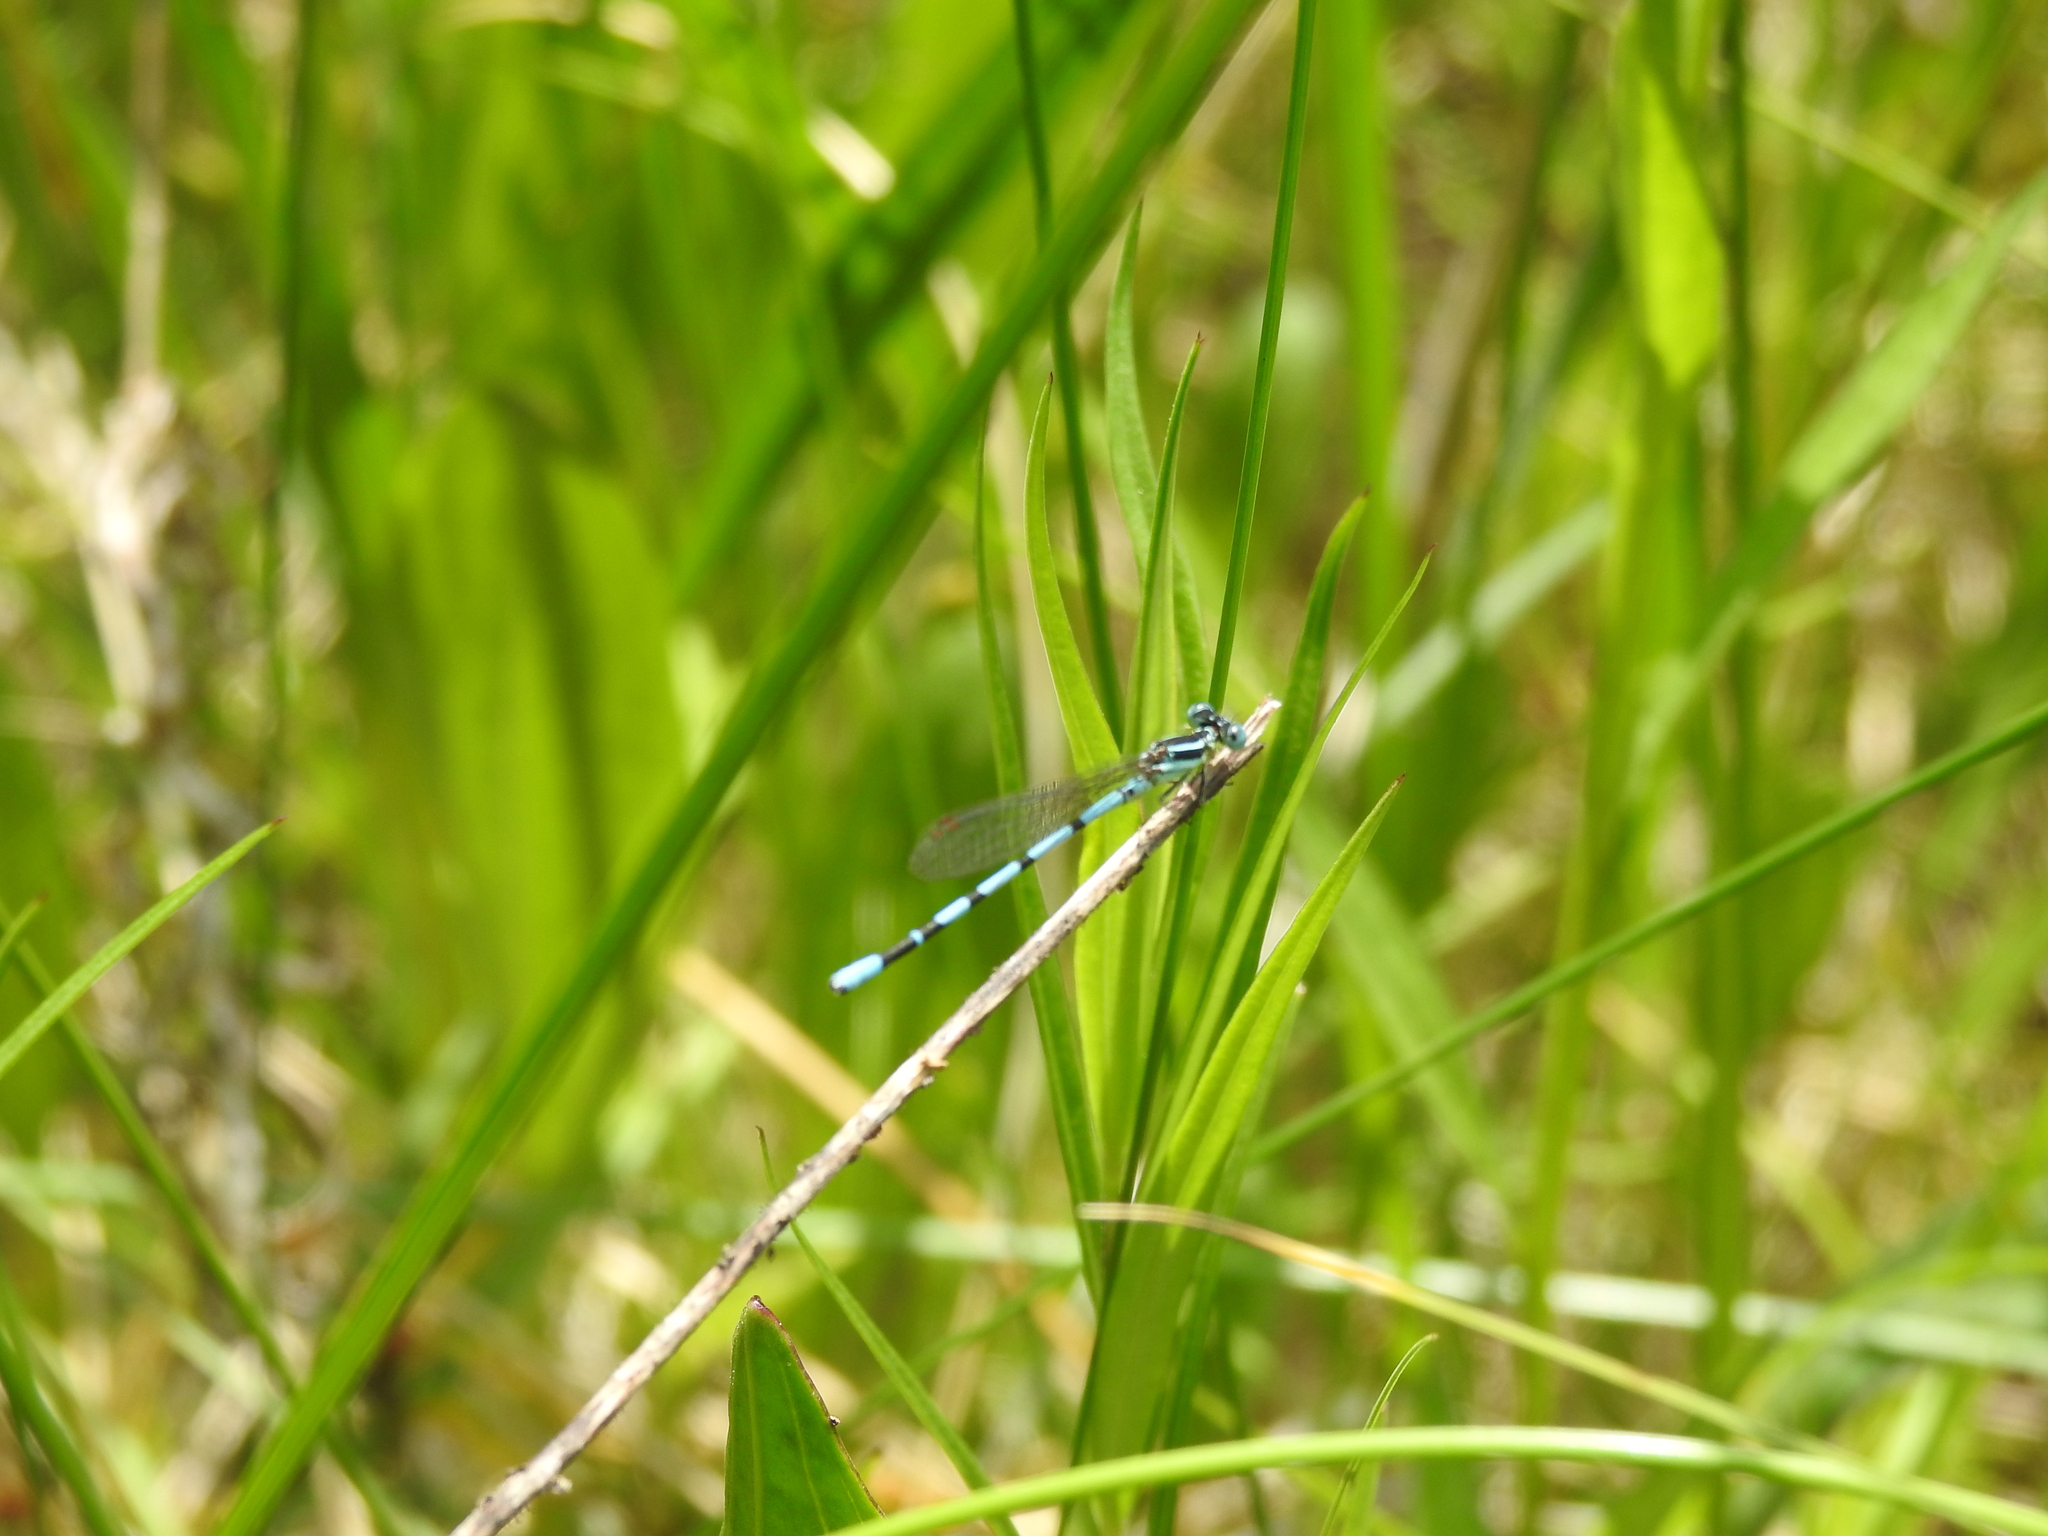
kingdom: Animalia
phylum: Arthropoda
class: Insecta
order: Odonata
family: Coenagrionidae
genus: Argia
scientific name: Argia bipunctulata
